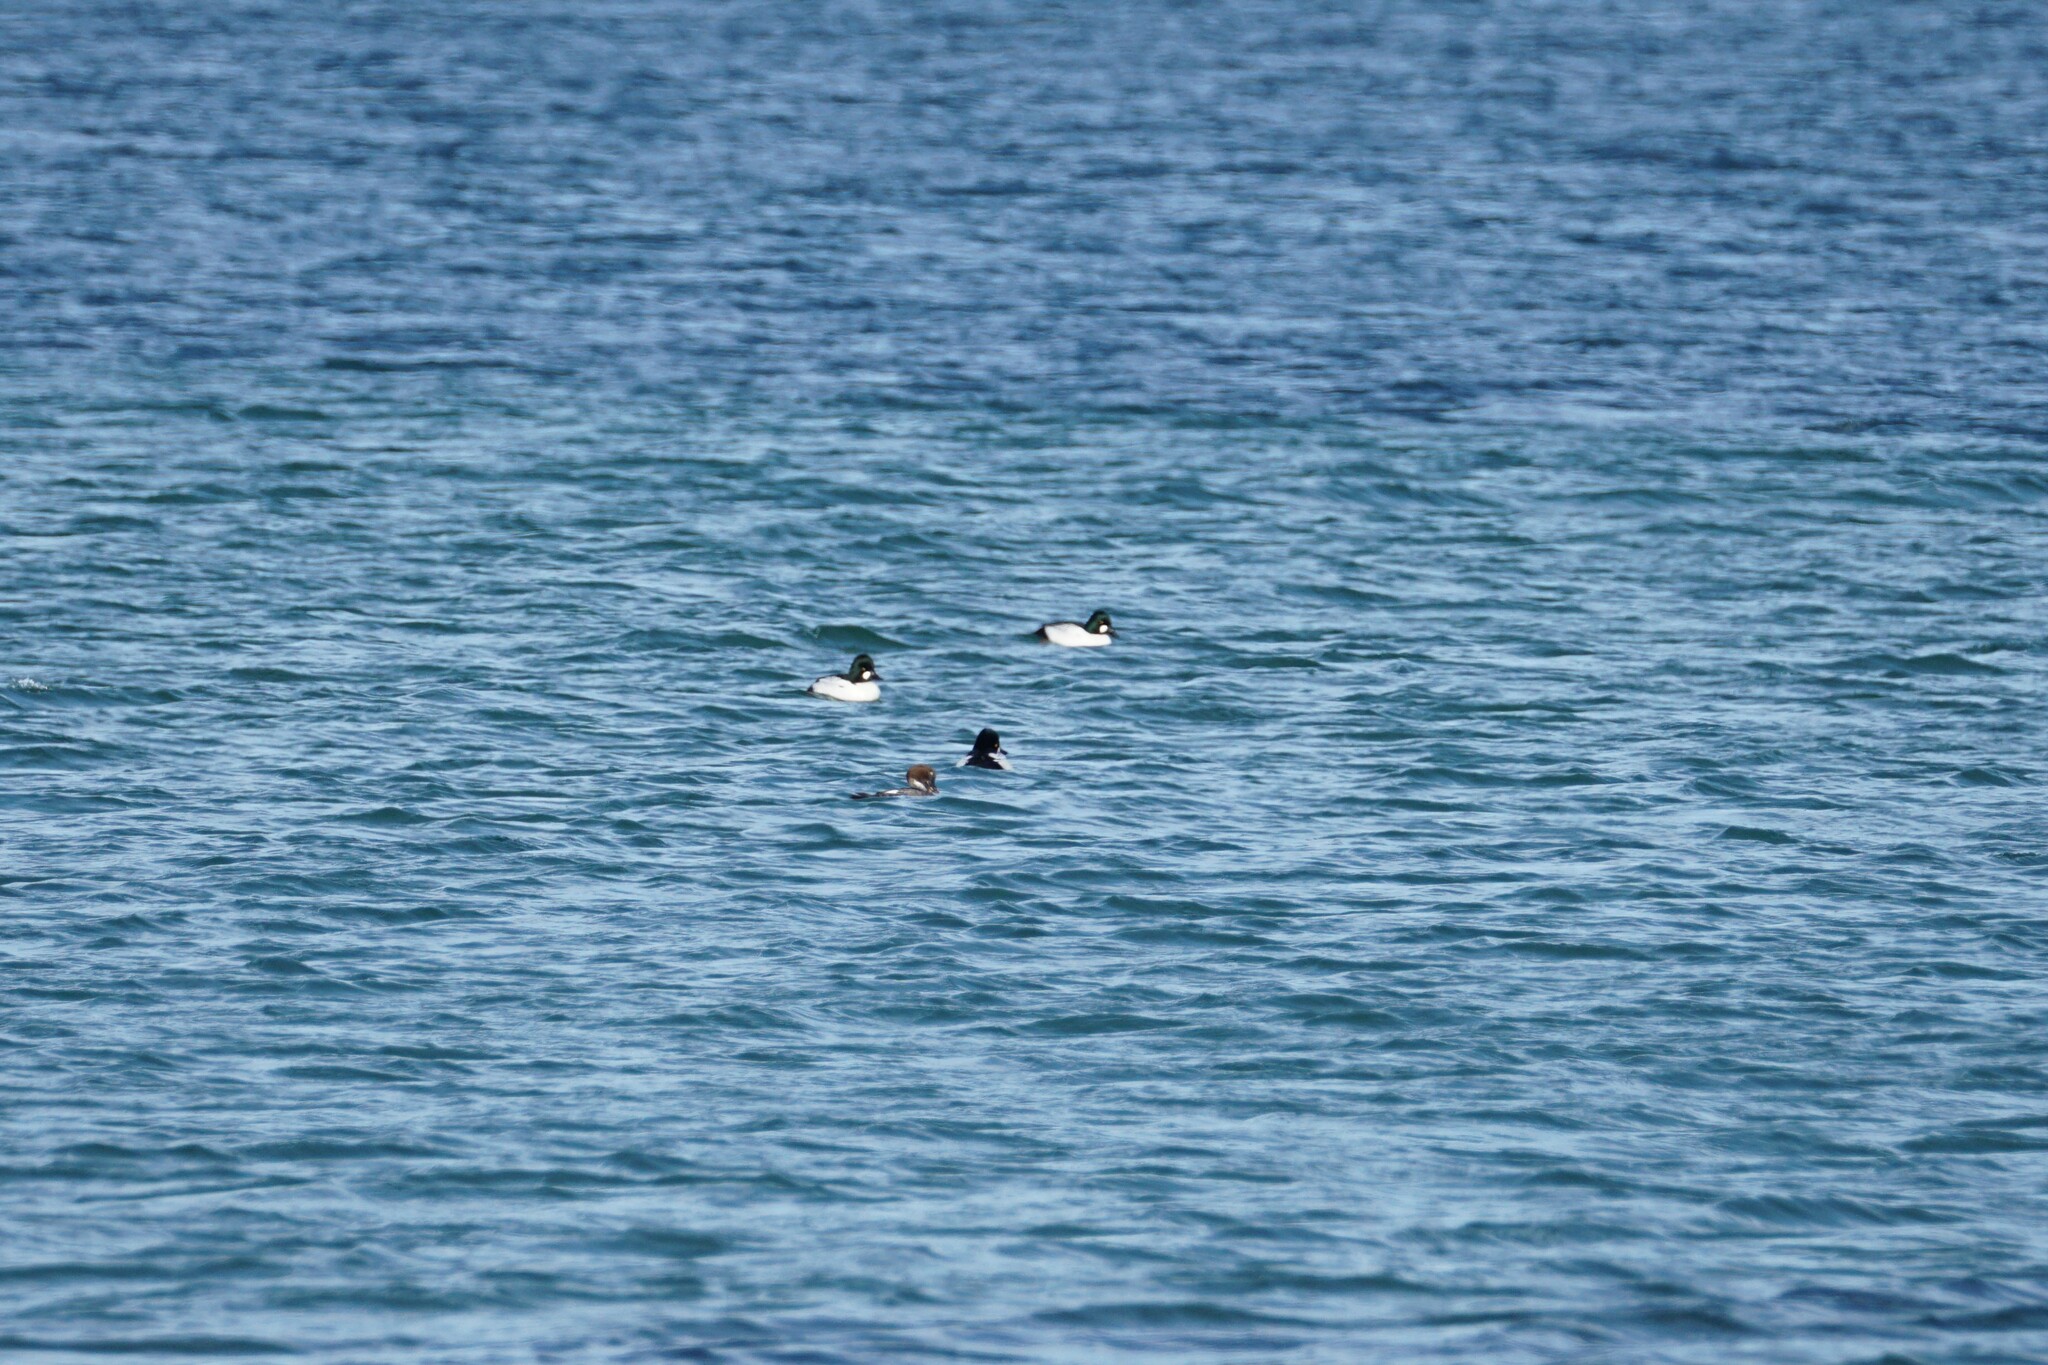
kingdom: Animalia
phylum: Chordata
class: Aves
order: Anseriformes
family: Anatidae
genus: Bucephala
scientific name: Bucephala clangula
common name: Common goldeneye
